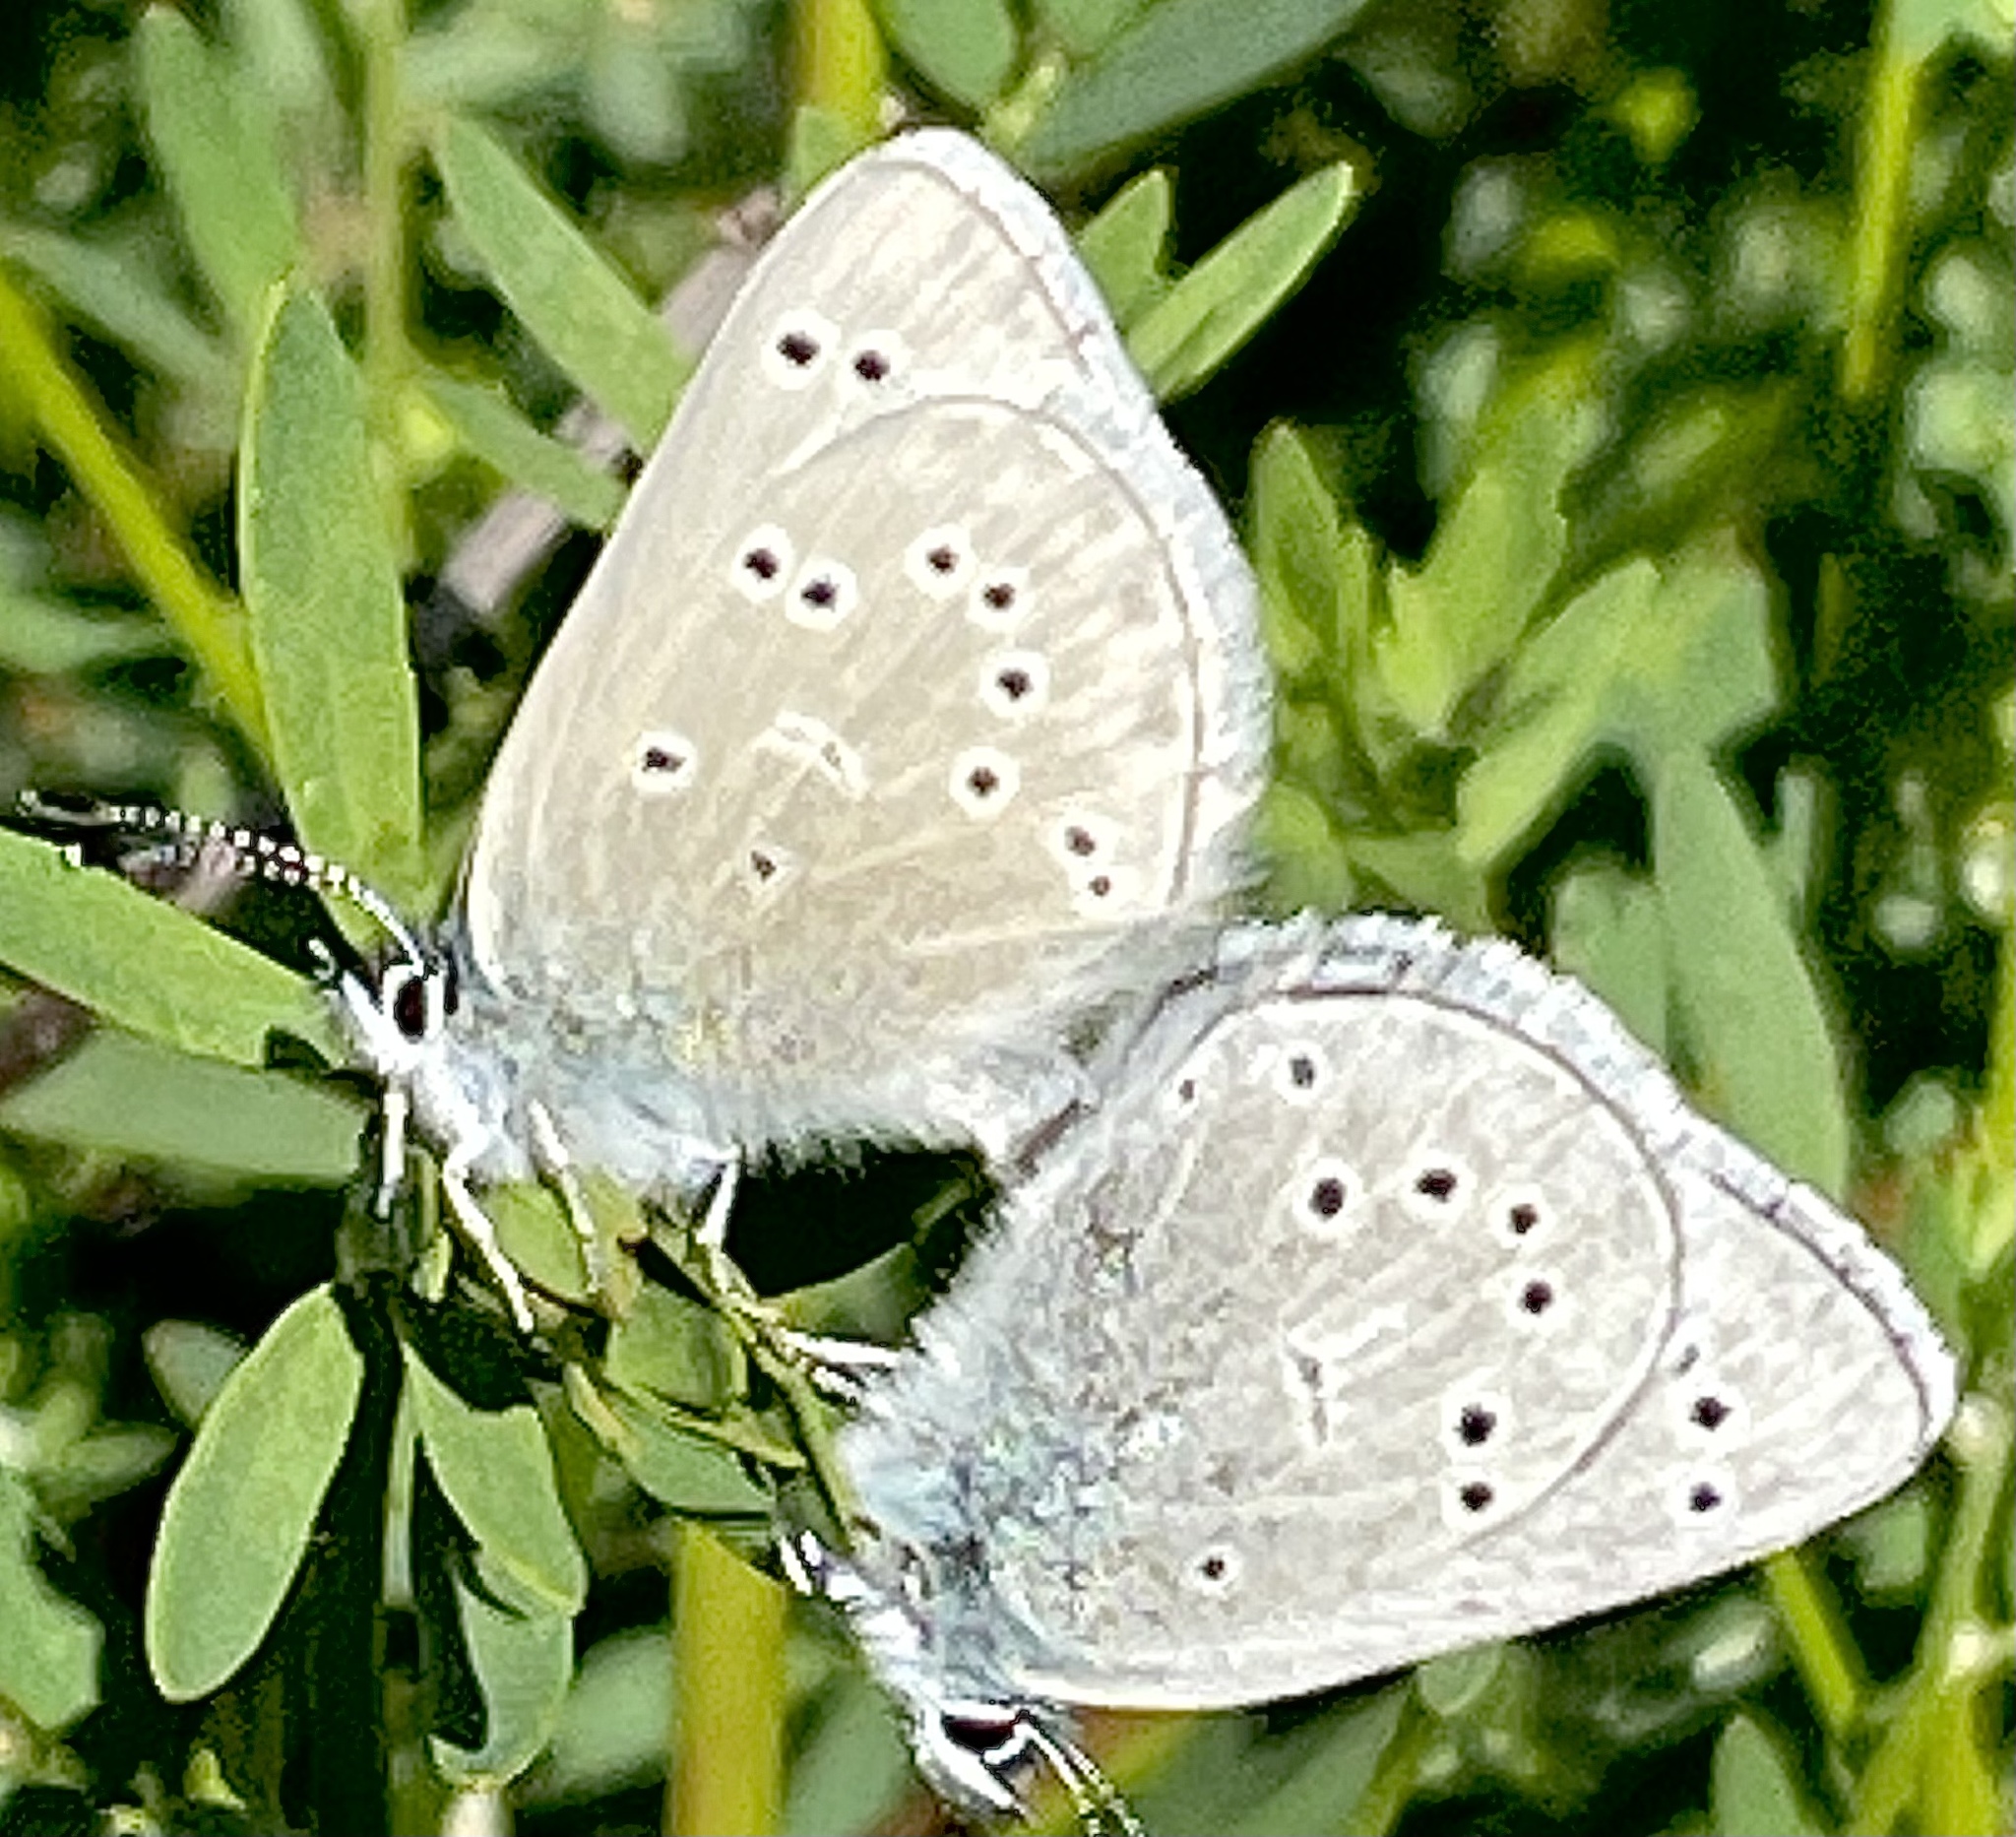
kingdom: Animalia
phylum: Arthropoda
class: Insecta
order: Lepidoptera
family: Lycaenidae
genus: Glaucopsyche
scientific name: Glaucopsyche lygdamus
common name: Silvery blue
